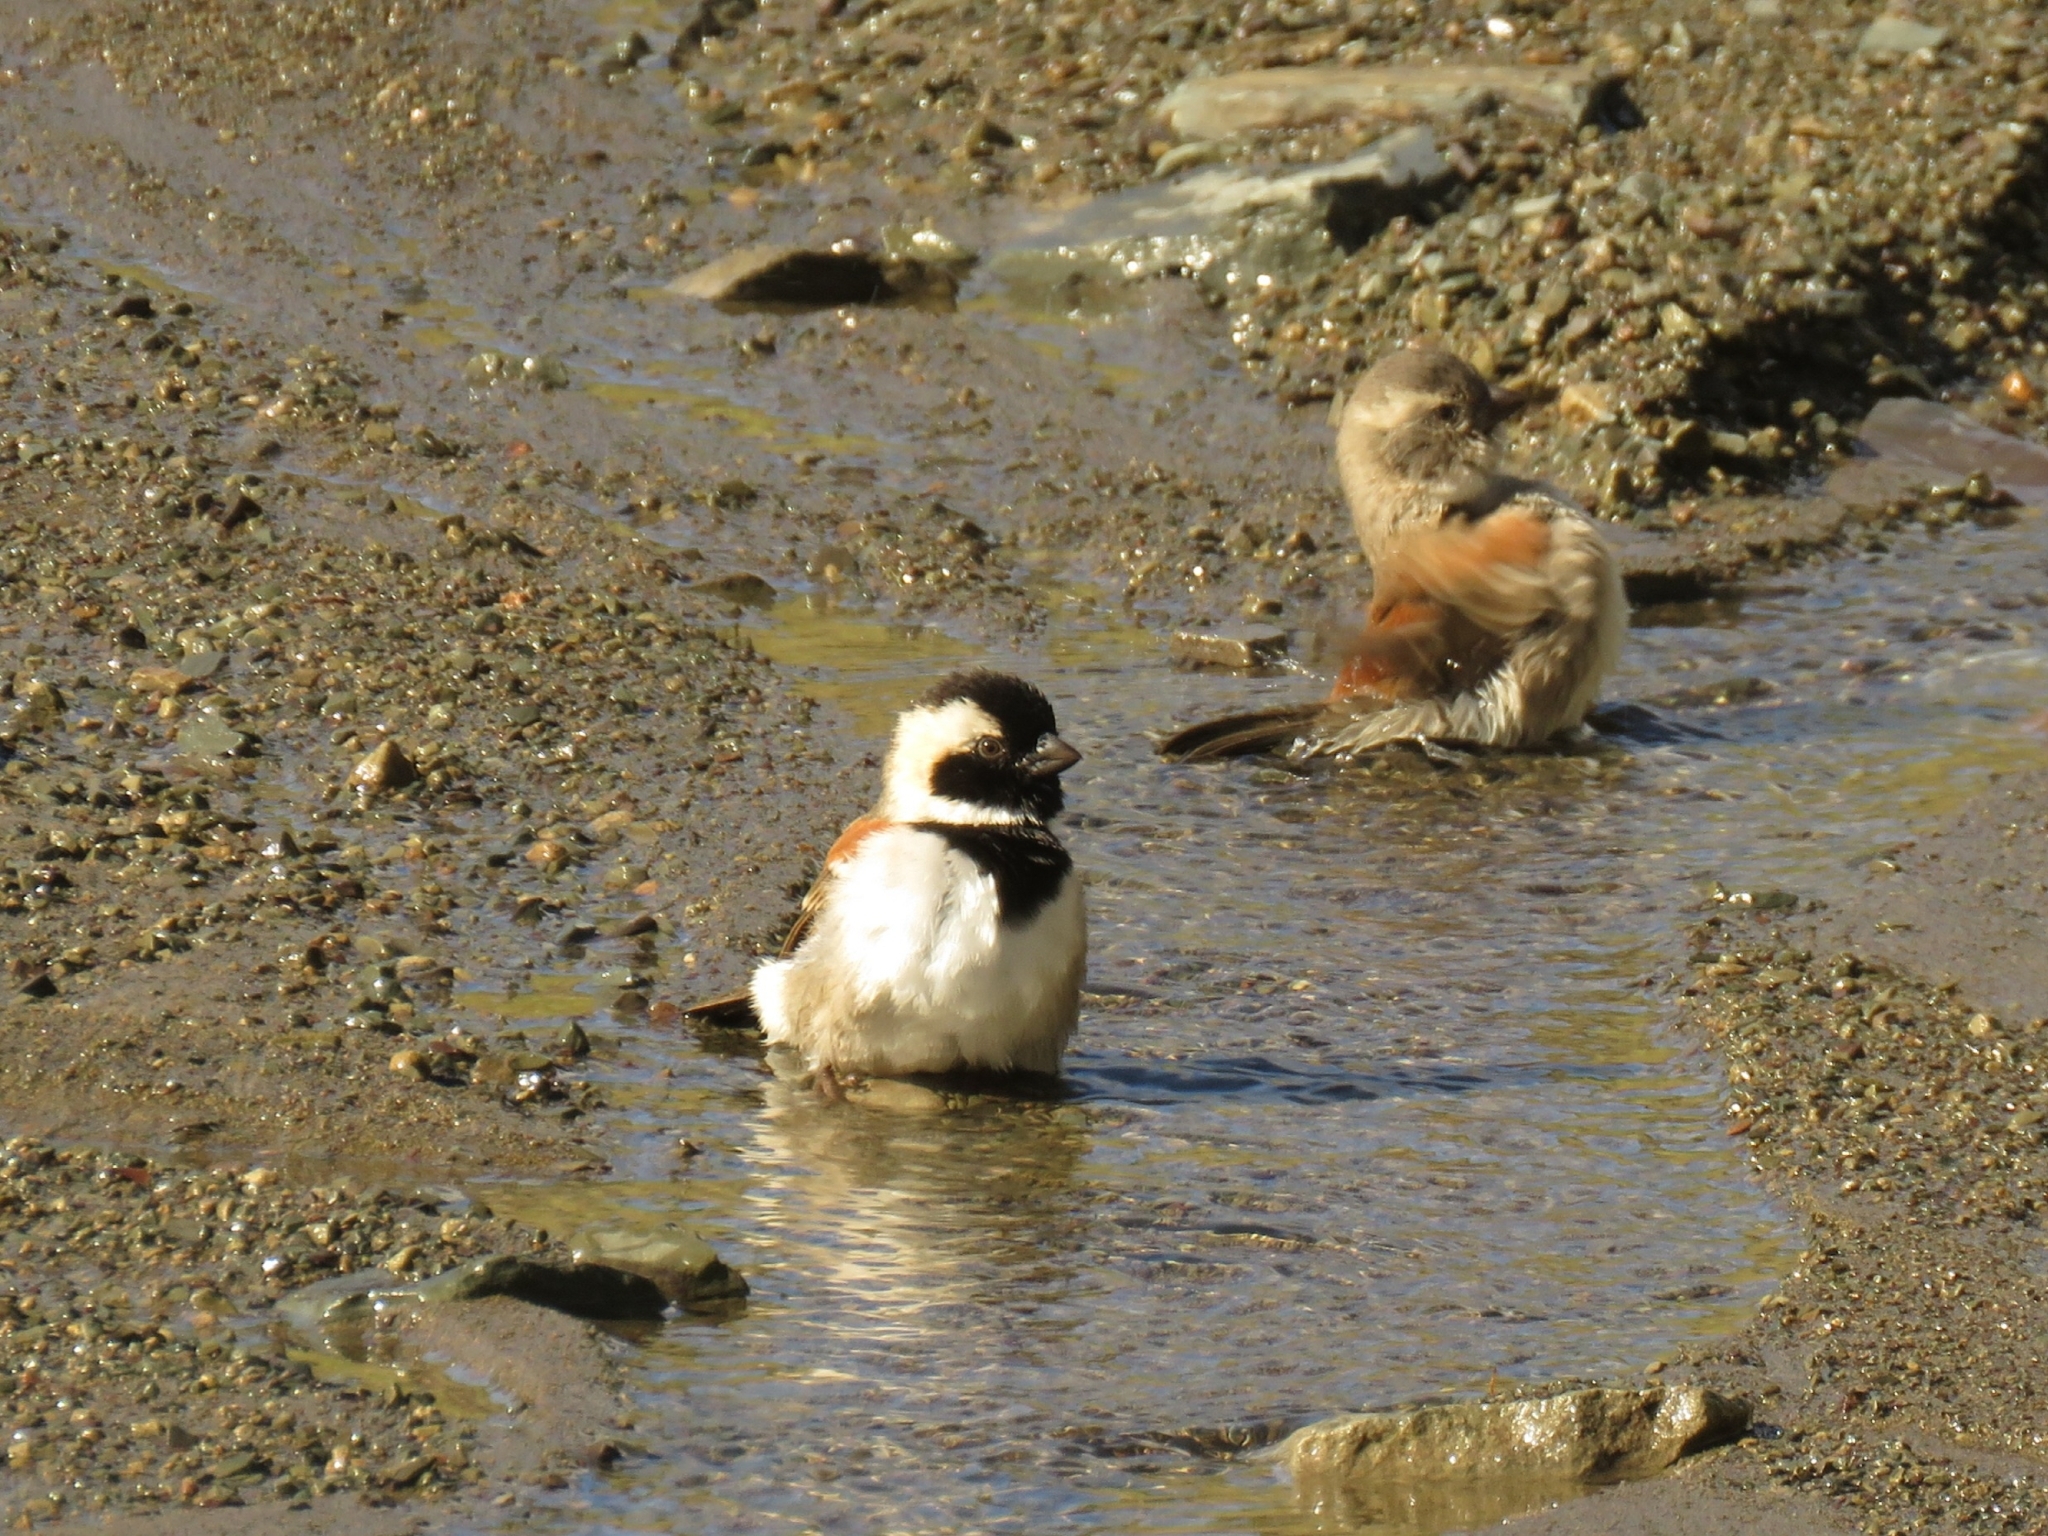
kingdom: Animalia
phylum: Chordata
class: Aves
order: Passeriformes
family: Passeridae
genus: Passer
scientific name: Passer melanurus
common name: Cape sparrow
